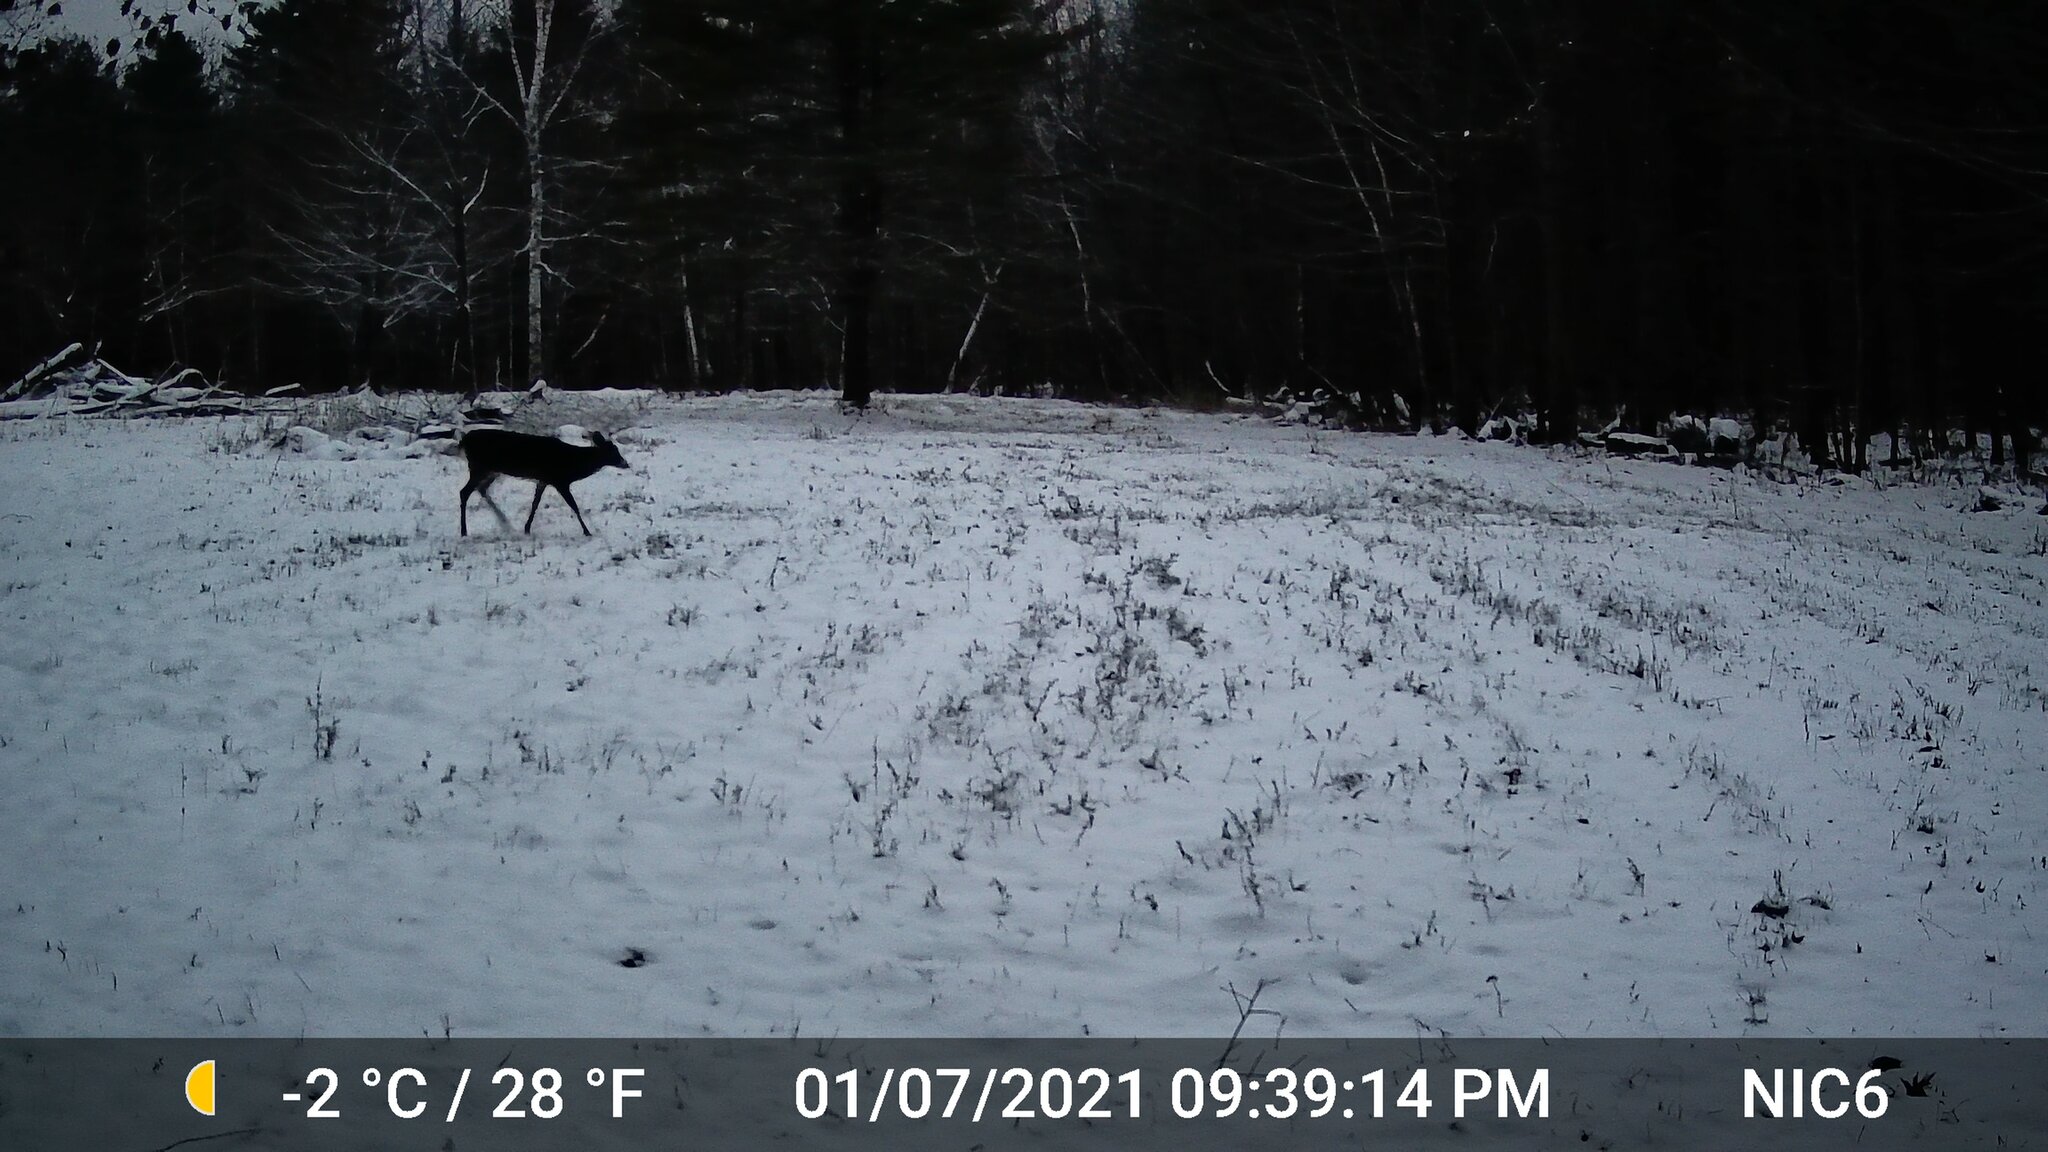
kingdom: Animalia
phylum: Chordata
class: Mammalia
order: Artiodactyla
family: Cervidae
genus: Odocoileus
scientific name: Odocoileus virginianus
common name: White-tailed deer
